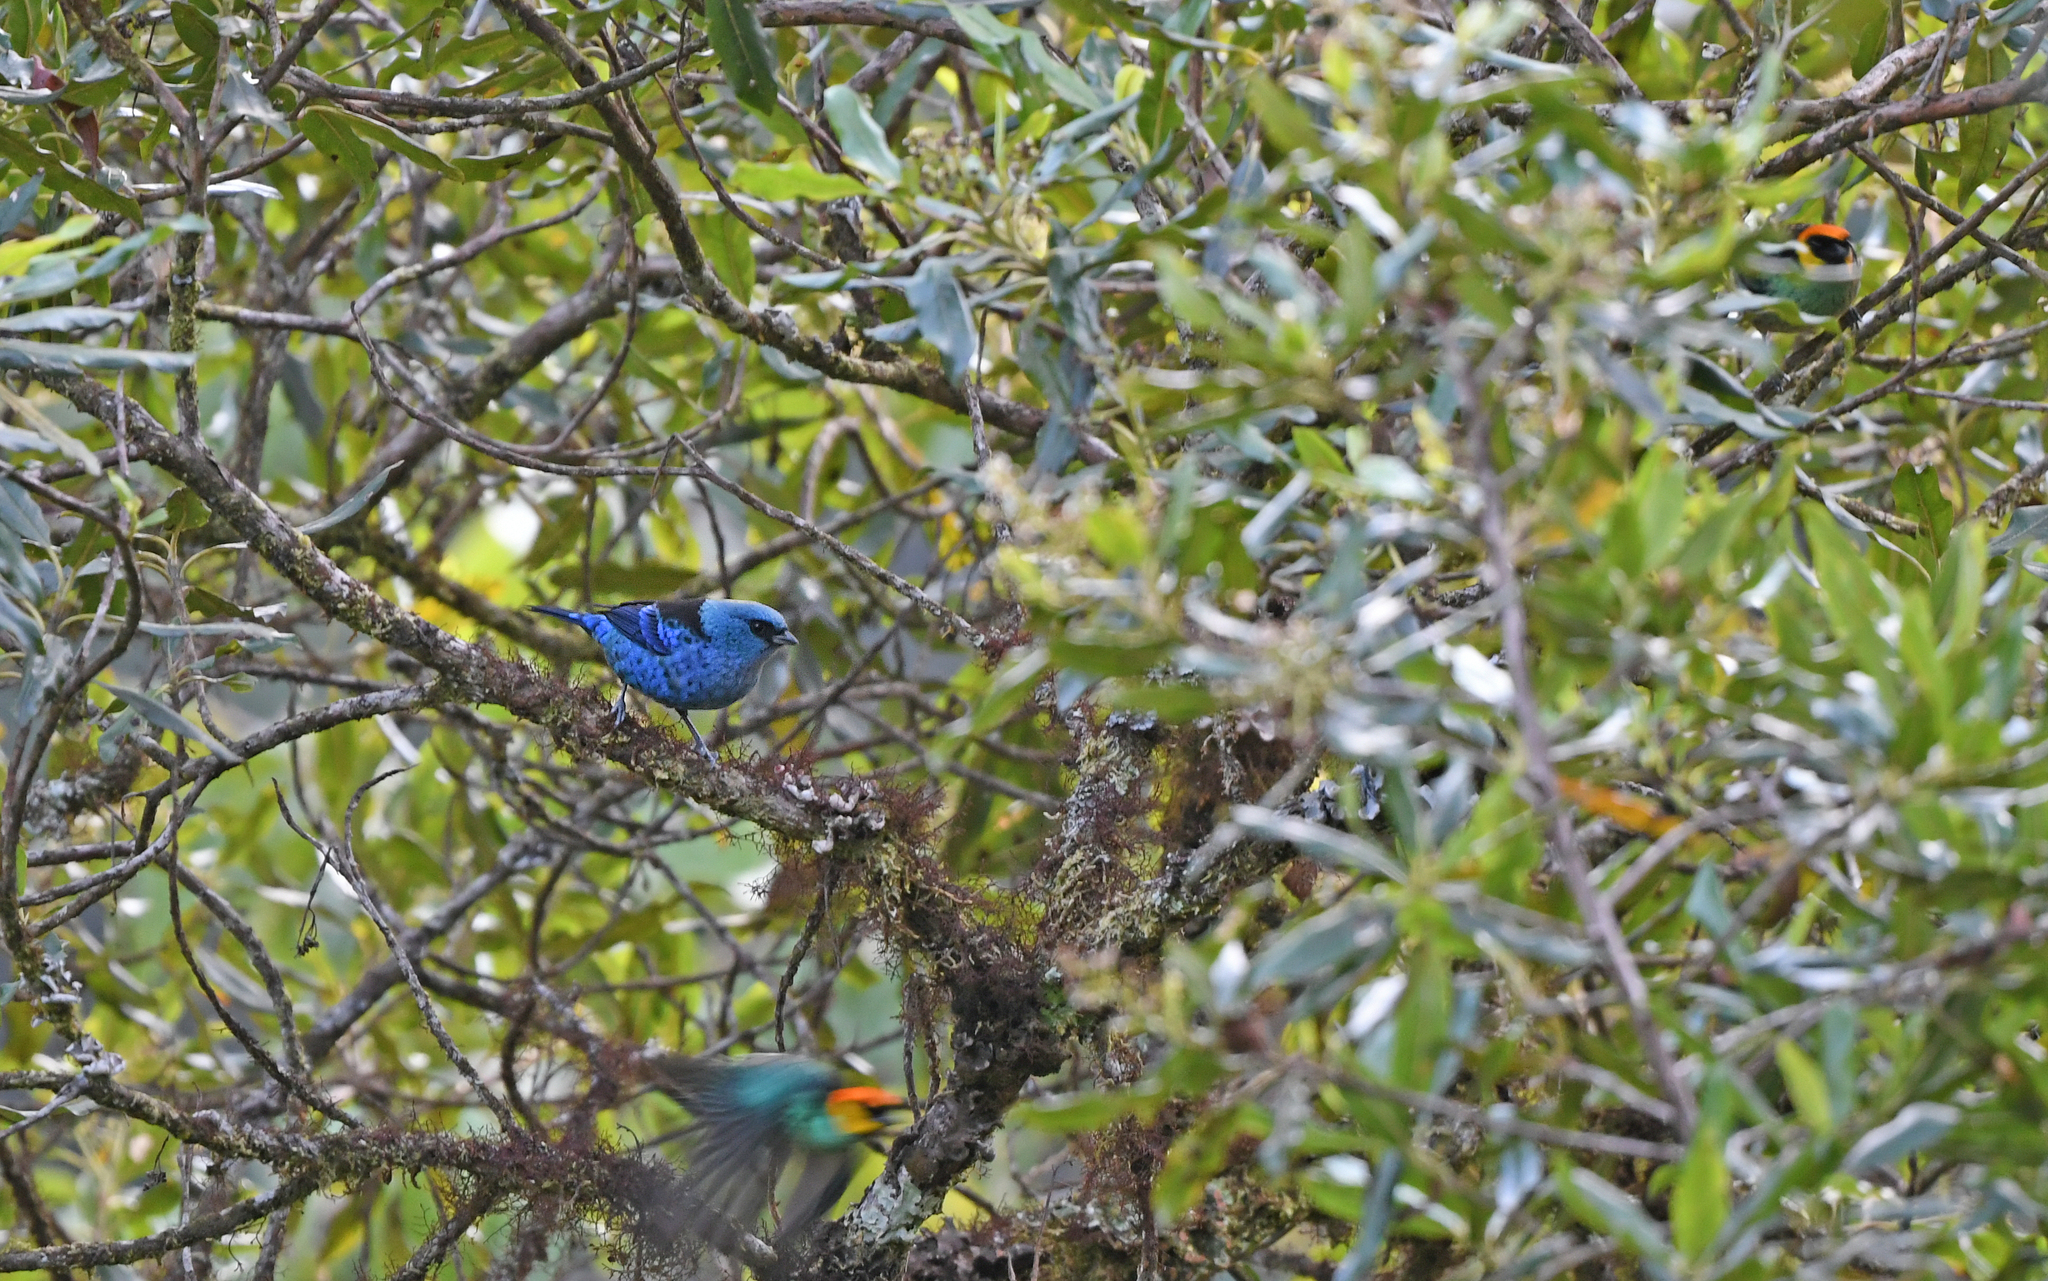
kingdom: Animalia
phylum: Chordata
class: Aves
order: Passeriformes
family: Thraupidae
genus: Tangara
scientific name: Tangara vassorii
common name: Blue-and-black tanager
